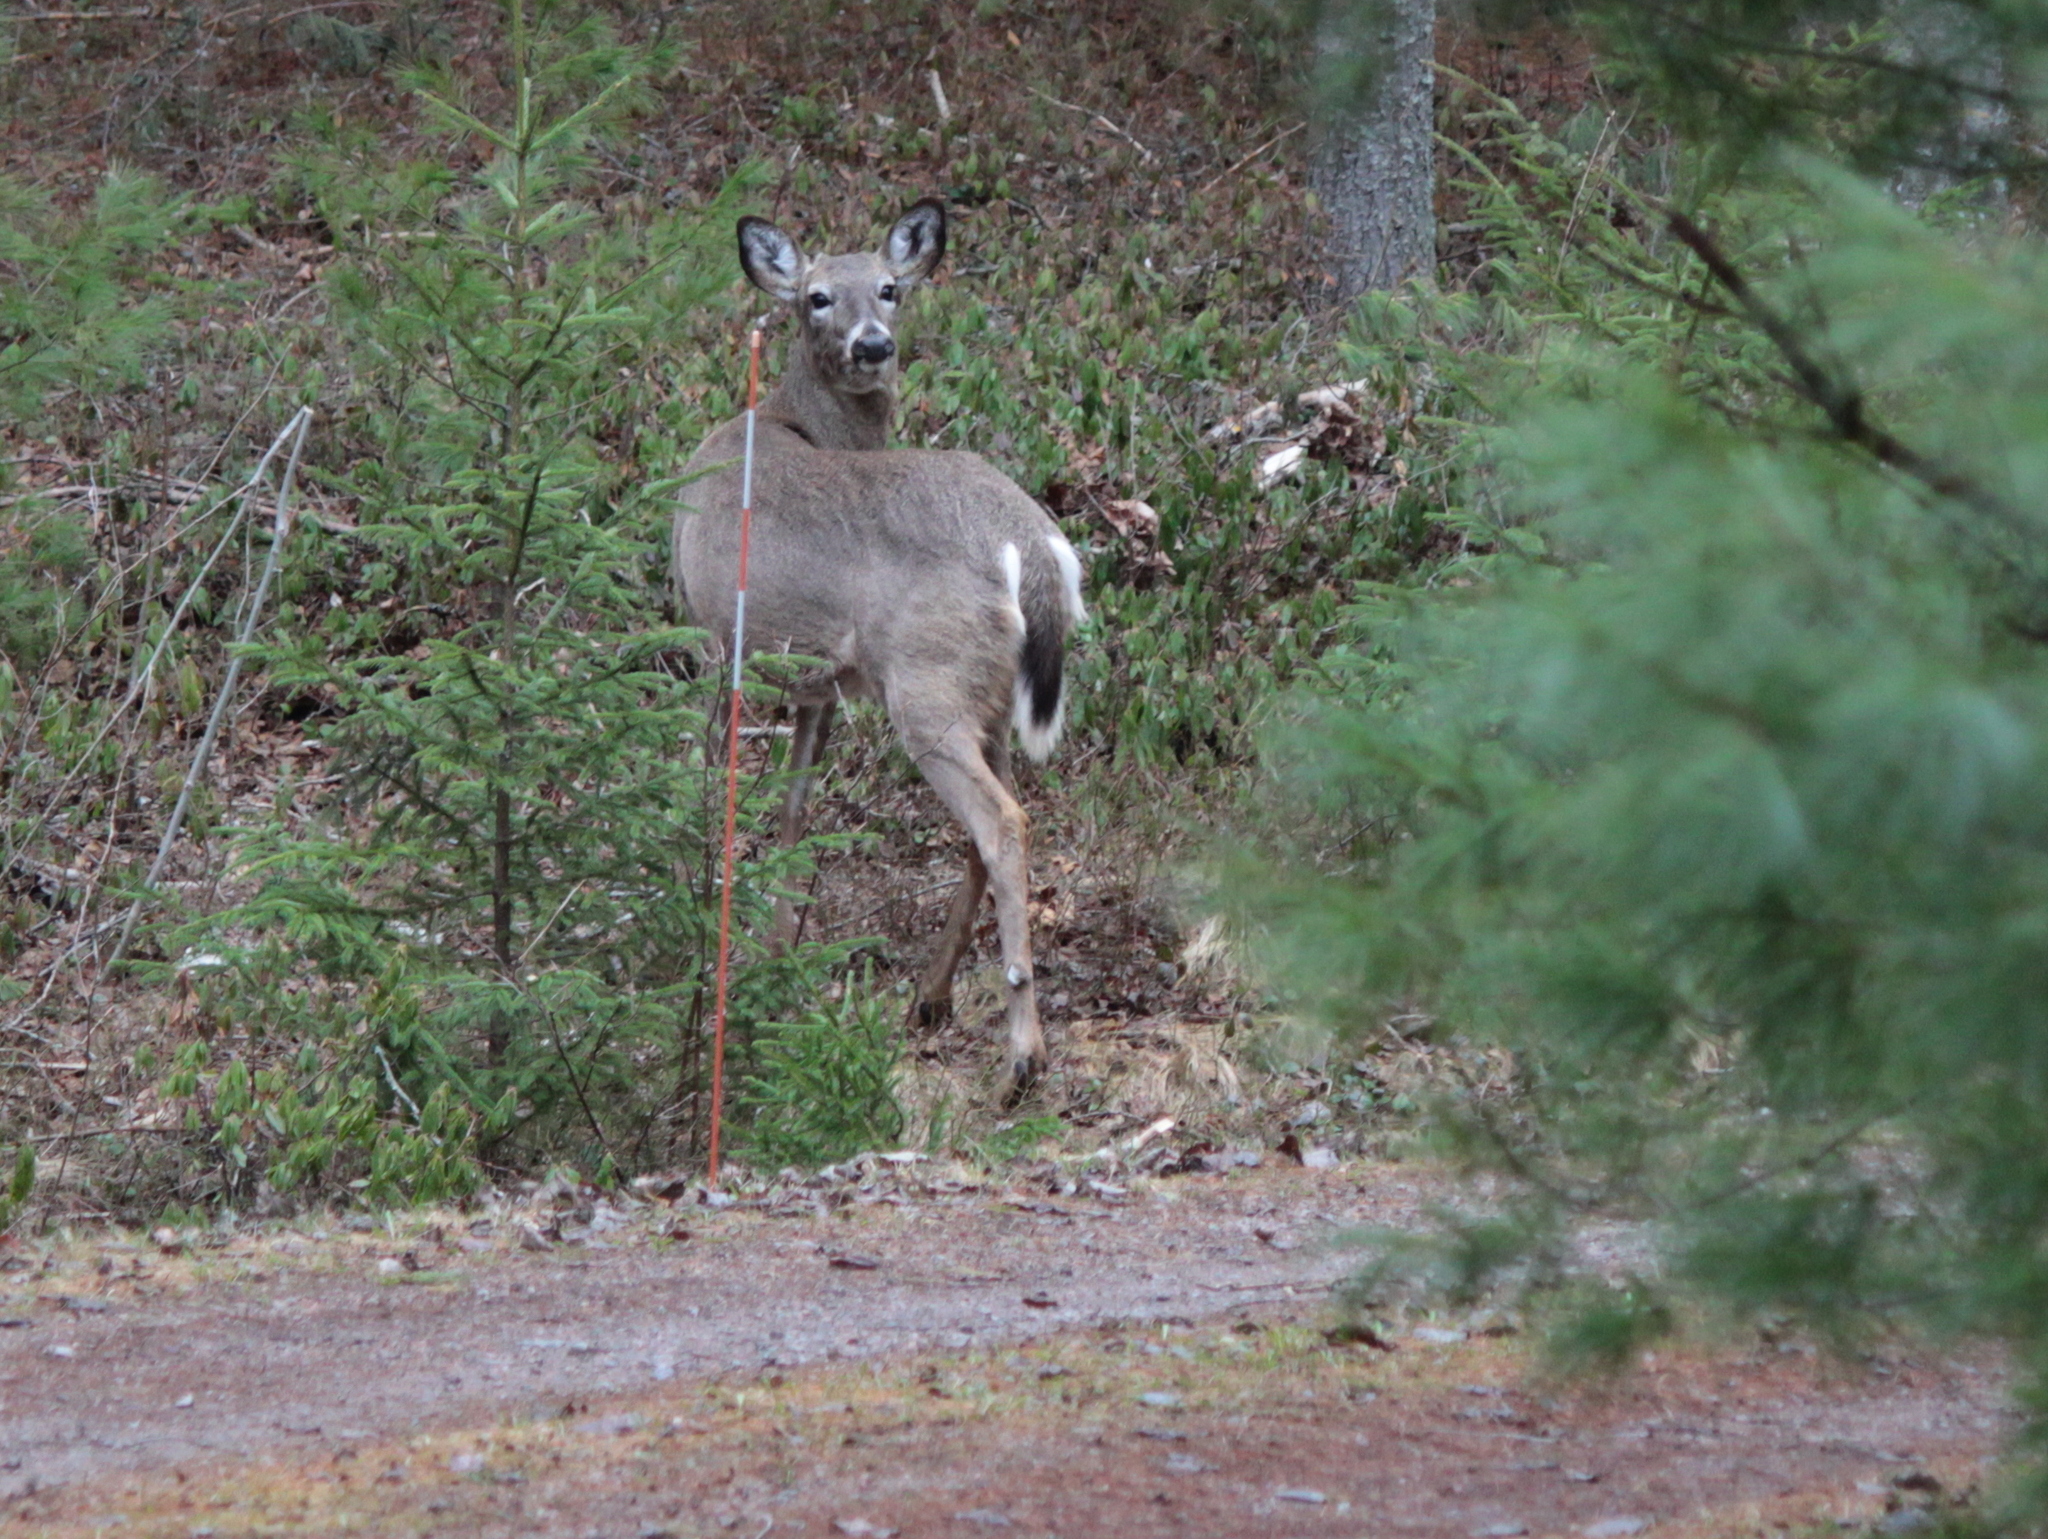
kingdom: Animalia
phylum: Chordata
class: Mammalia
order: Artiodactyla
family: Cervidae
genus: Odocoileus
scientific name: Odocoileus virginianus
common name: White-tailed deer
